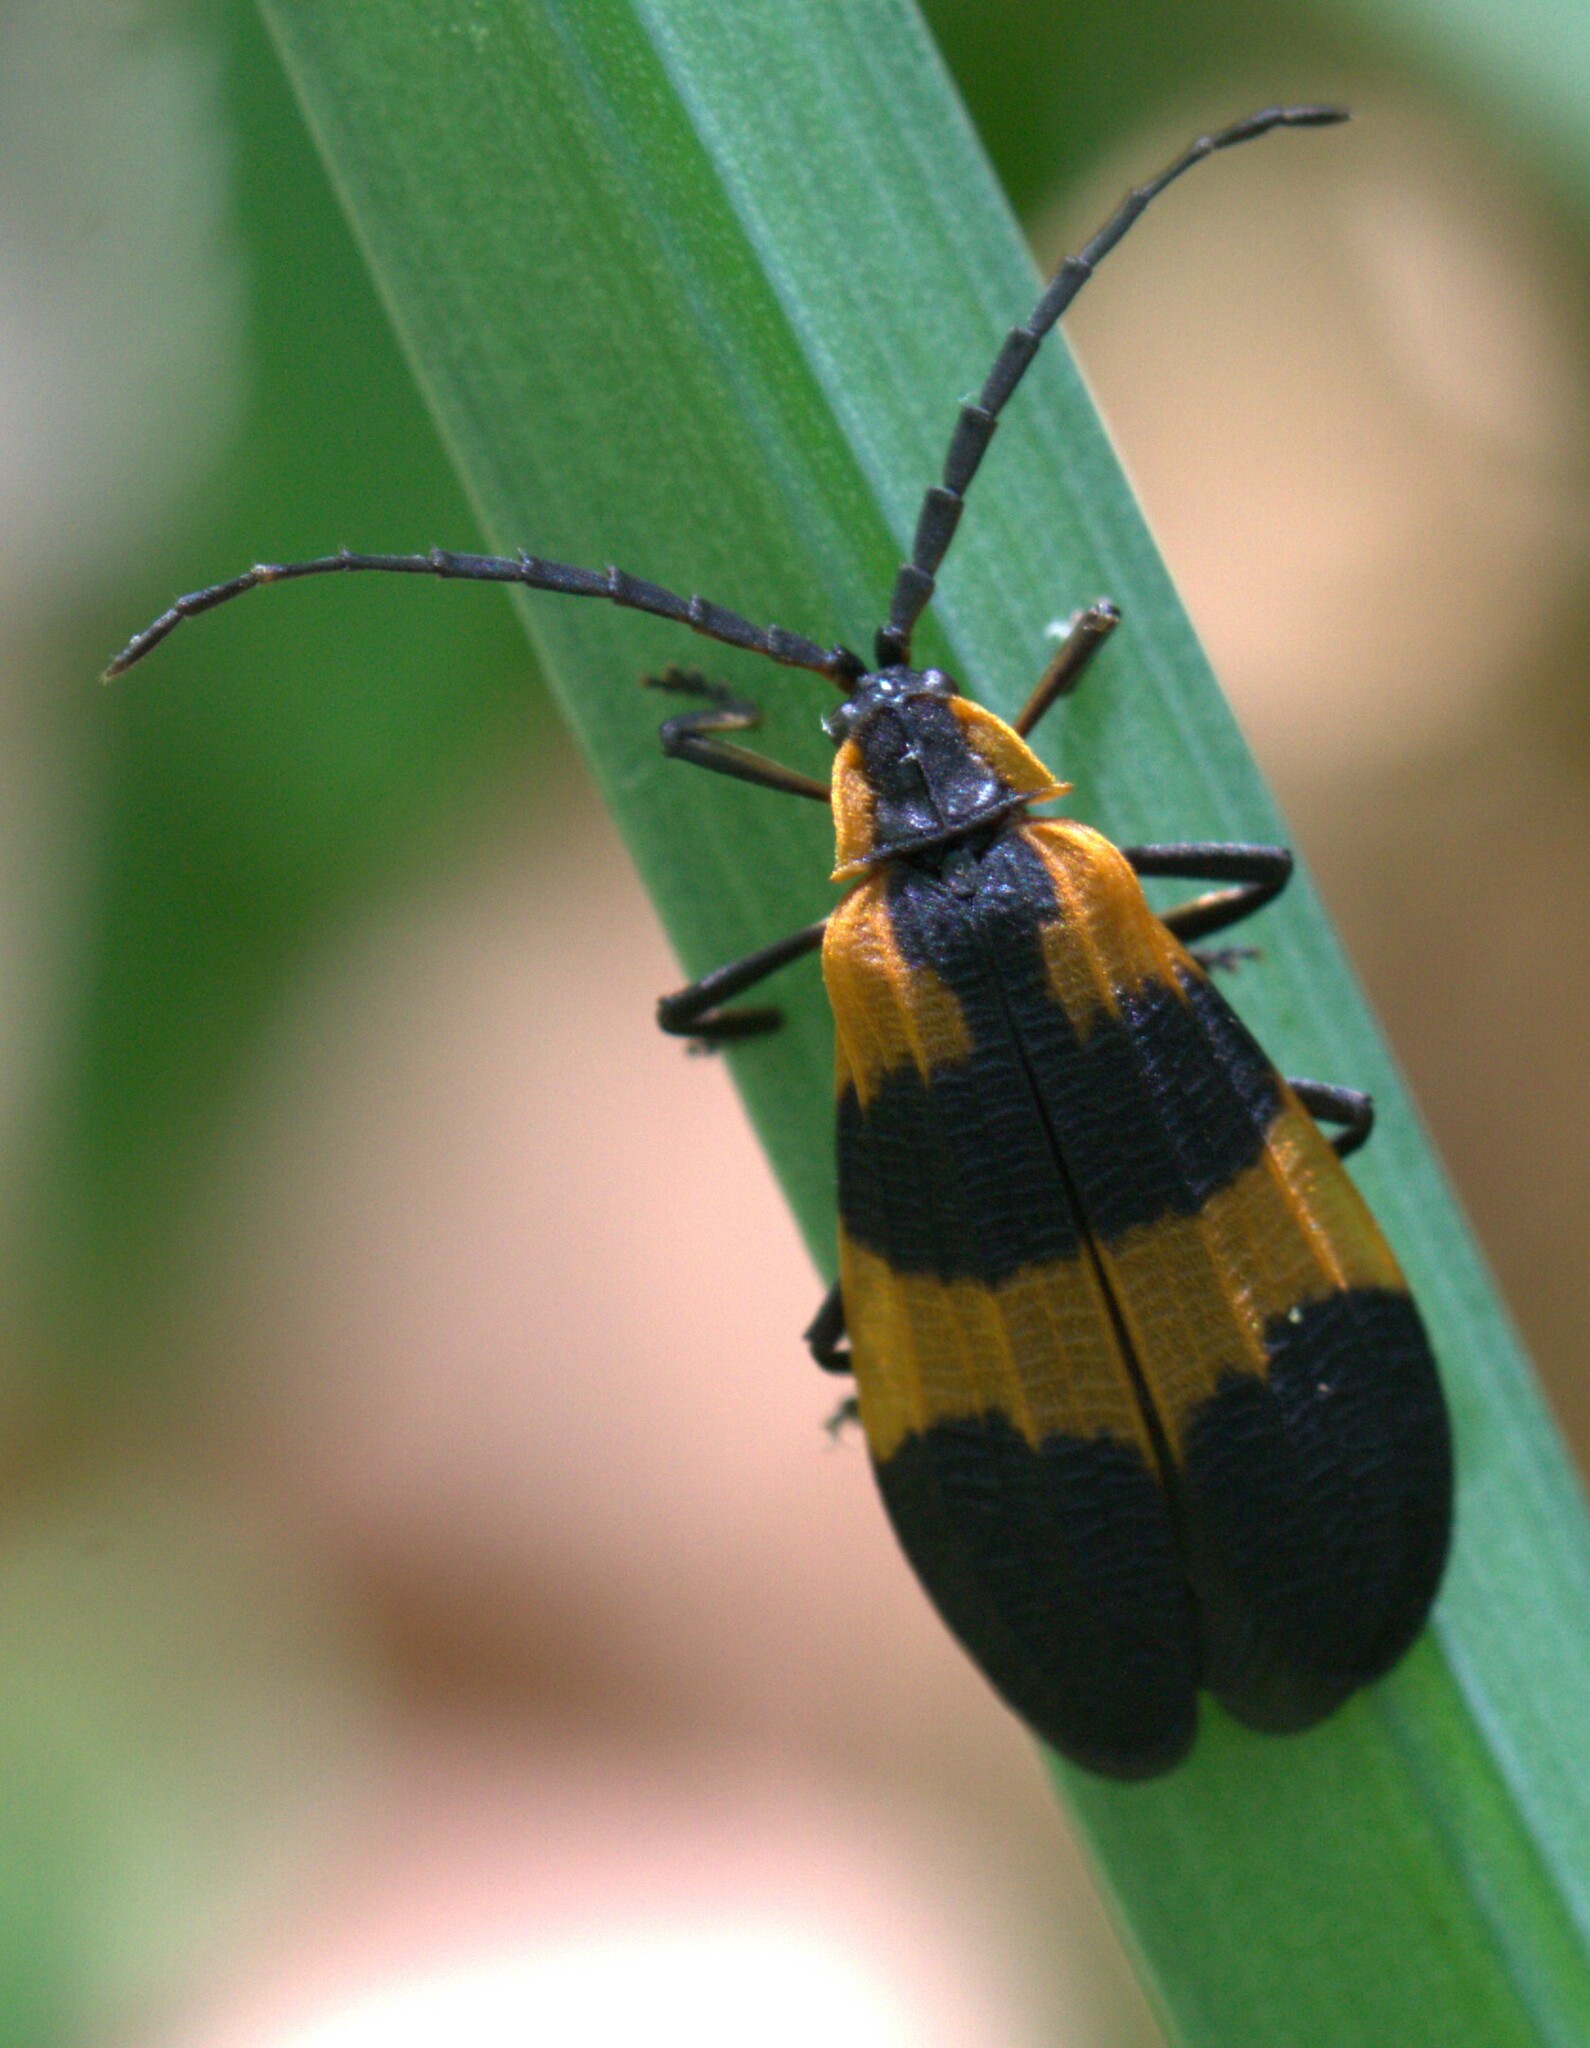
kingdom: Animalia
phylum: Arthropoda
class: Insecta
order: Coleoptera
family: Lycidae
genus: Calopteron
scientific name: Calopteron discrepans
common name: Banded net-winged beetle
